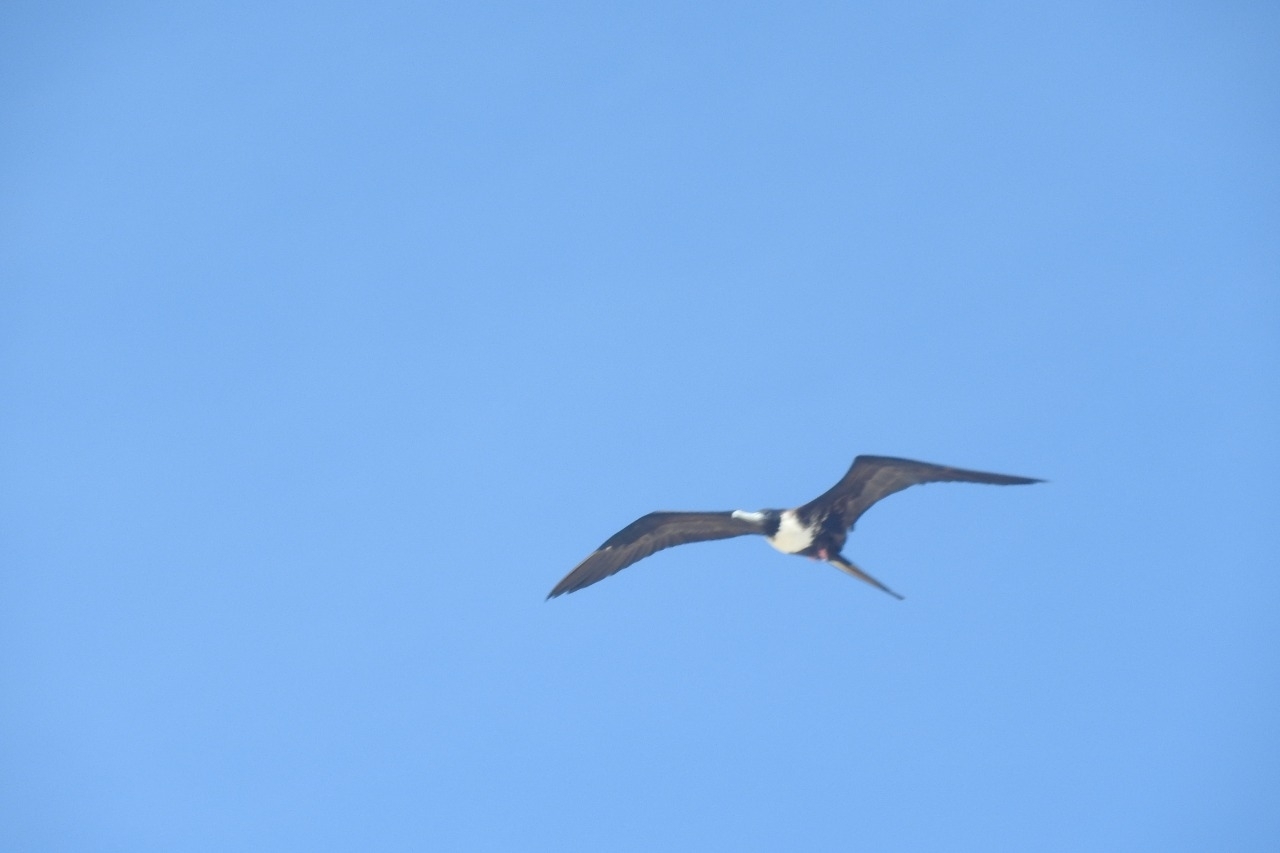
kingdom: Animalia
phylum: Chordata
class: Aves
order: Suliformes
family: Fregatidae
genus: Fregata
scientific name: Fregata magnificens
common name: Magnificent frigatebird
